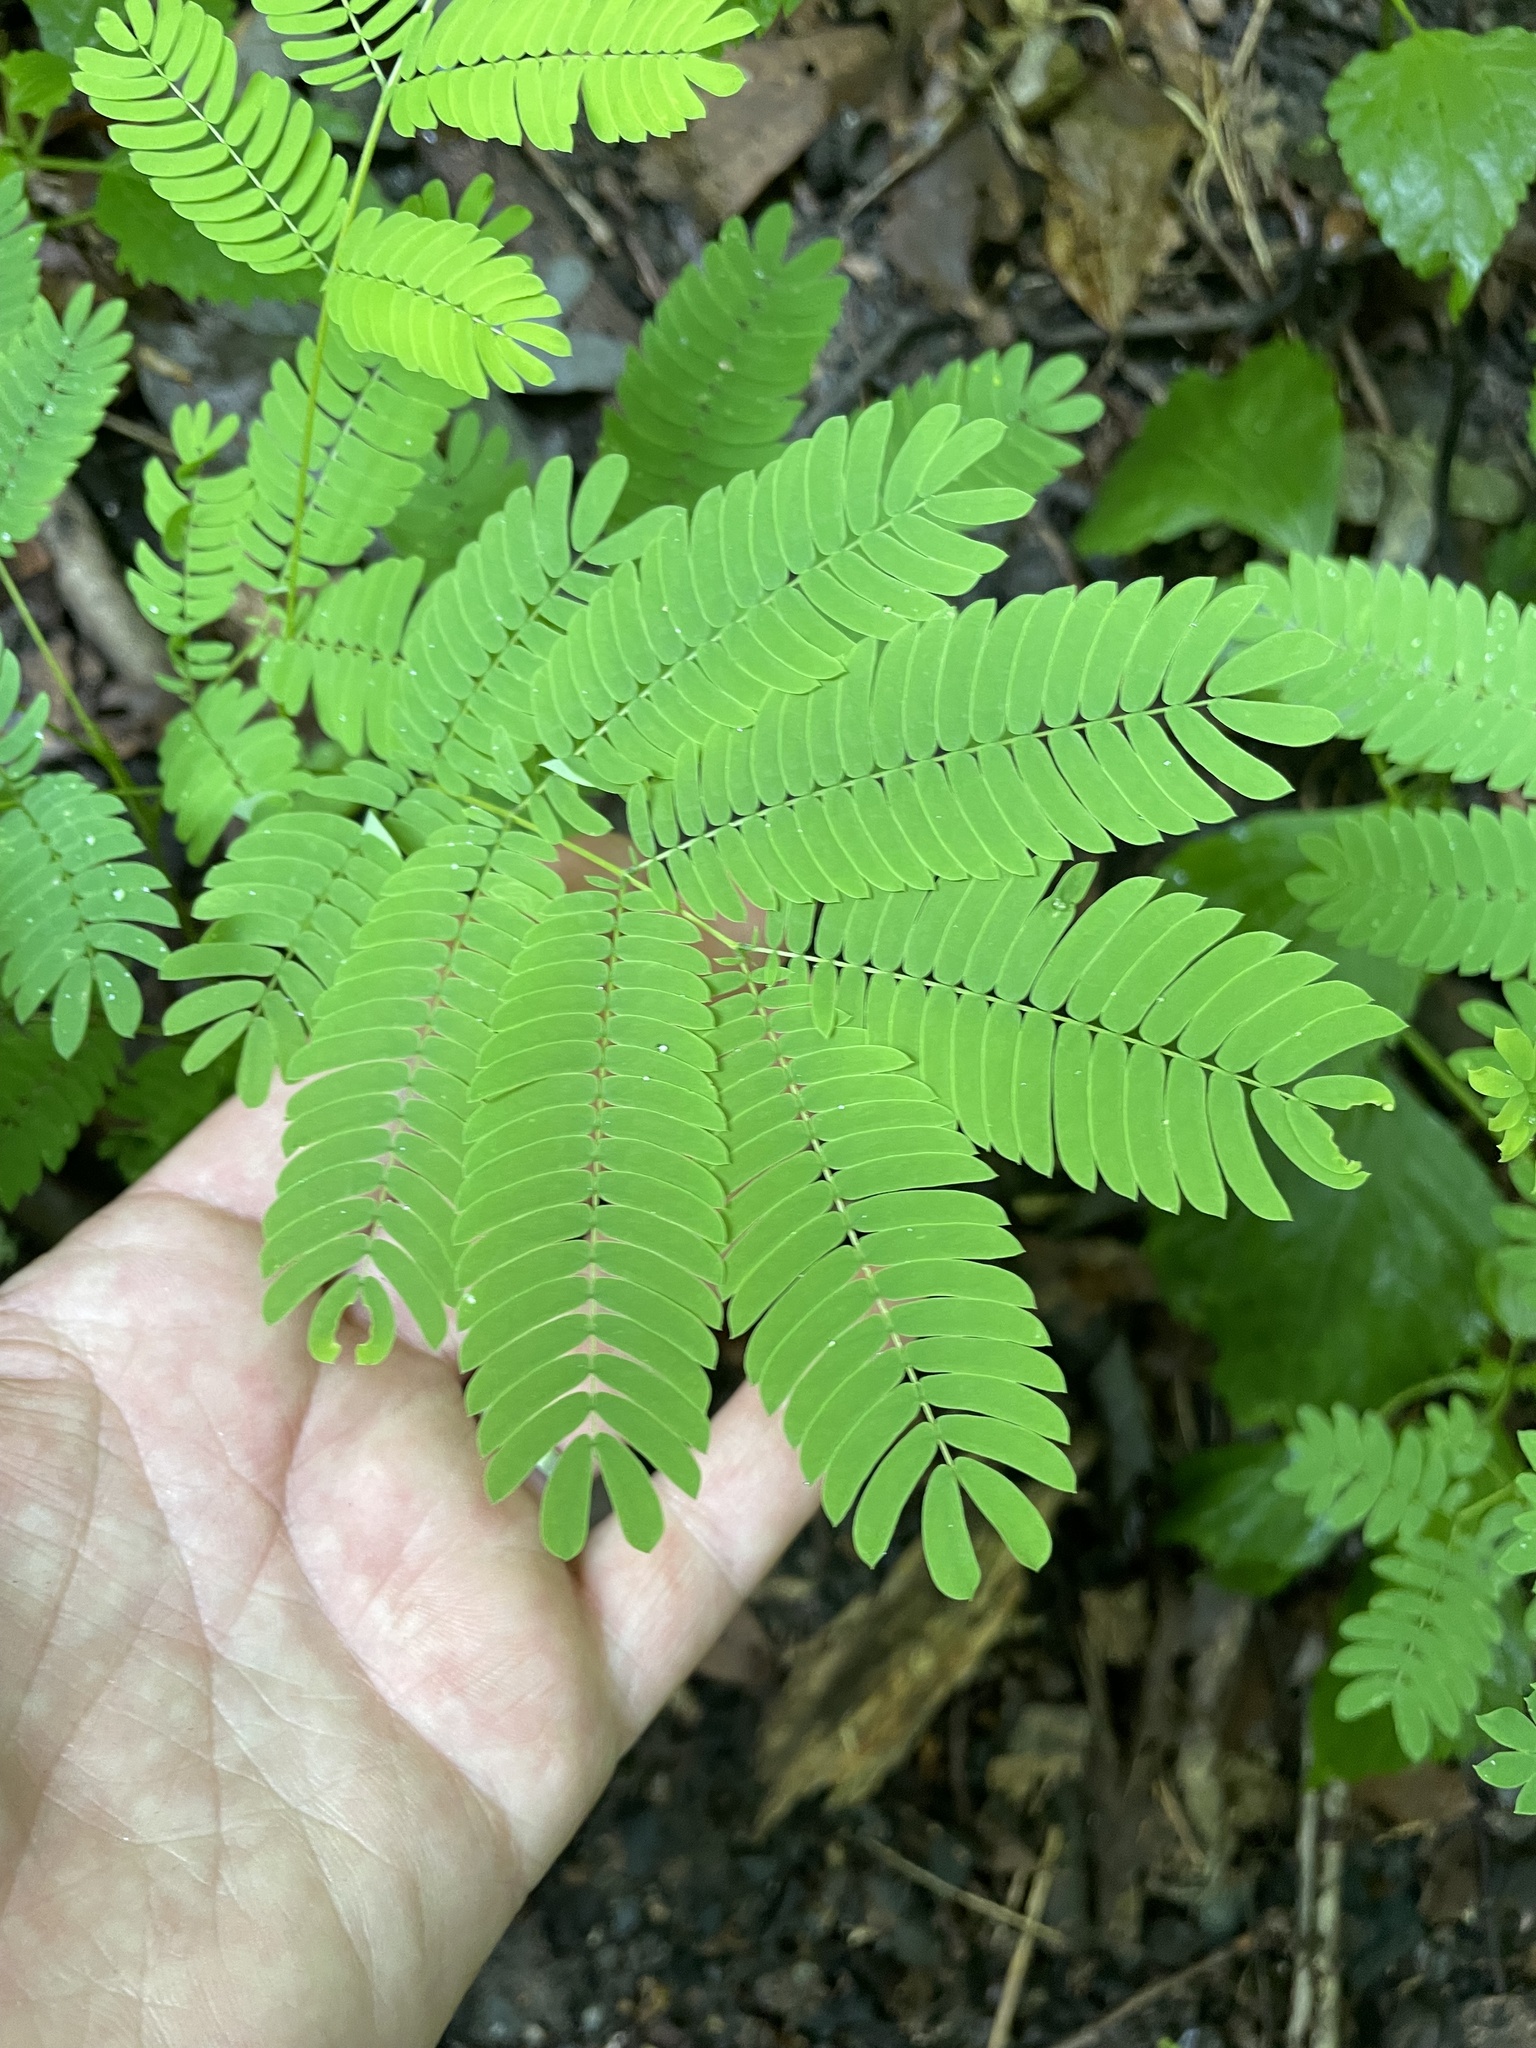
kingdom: Plantae
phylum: Tracheophyta
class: Magnoliopsida
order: Fabales
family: Fabaceae
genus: Albizia
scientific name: Albizia julibrissin
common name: Silktree
